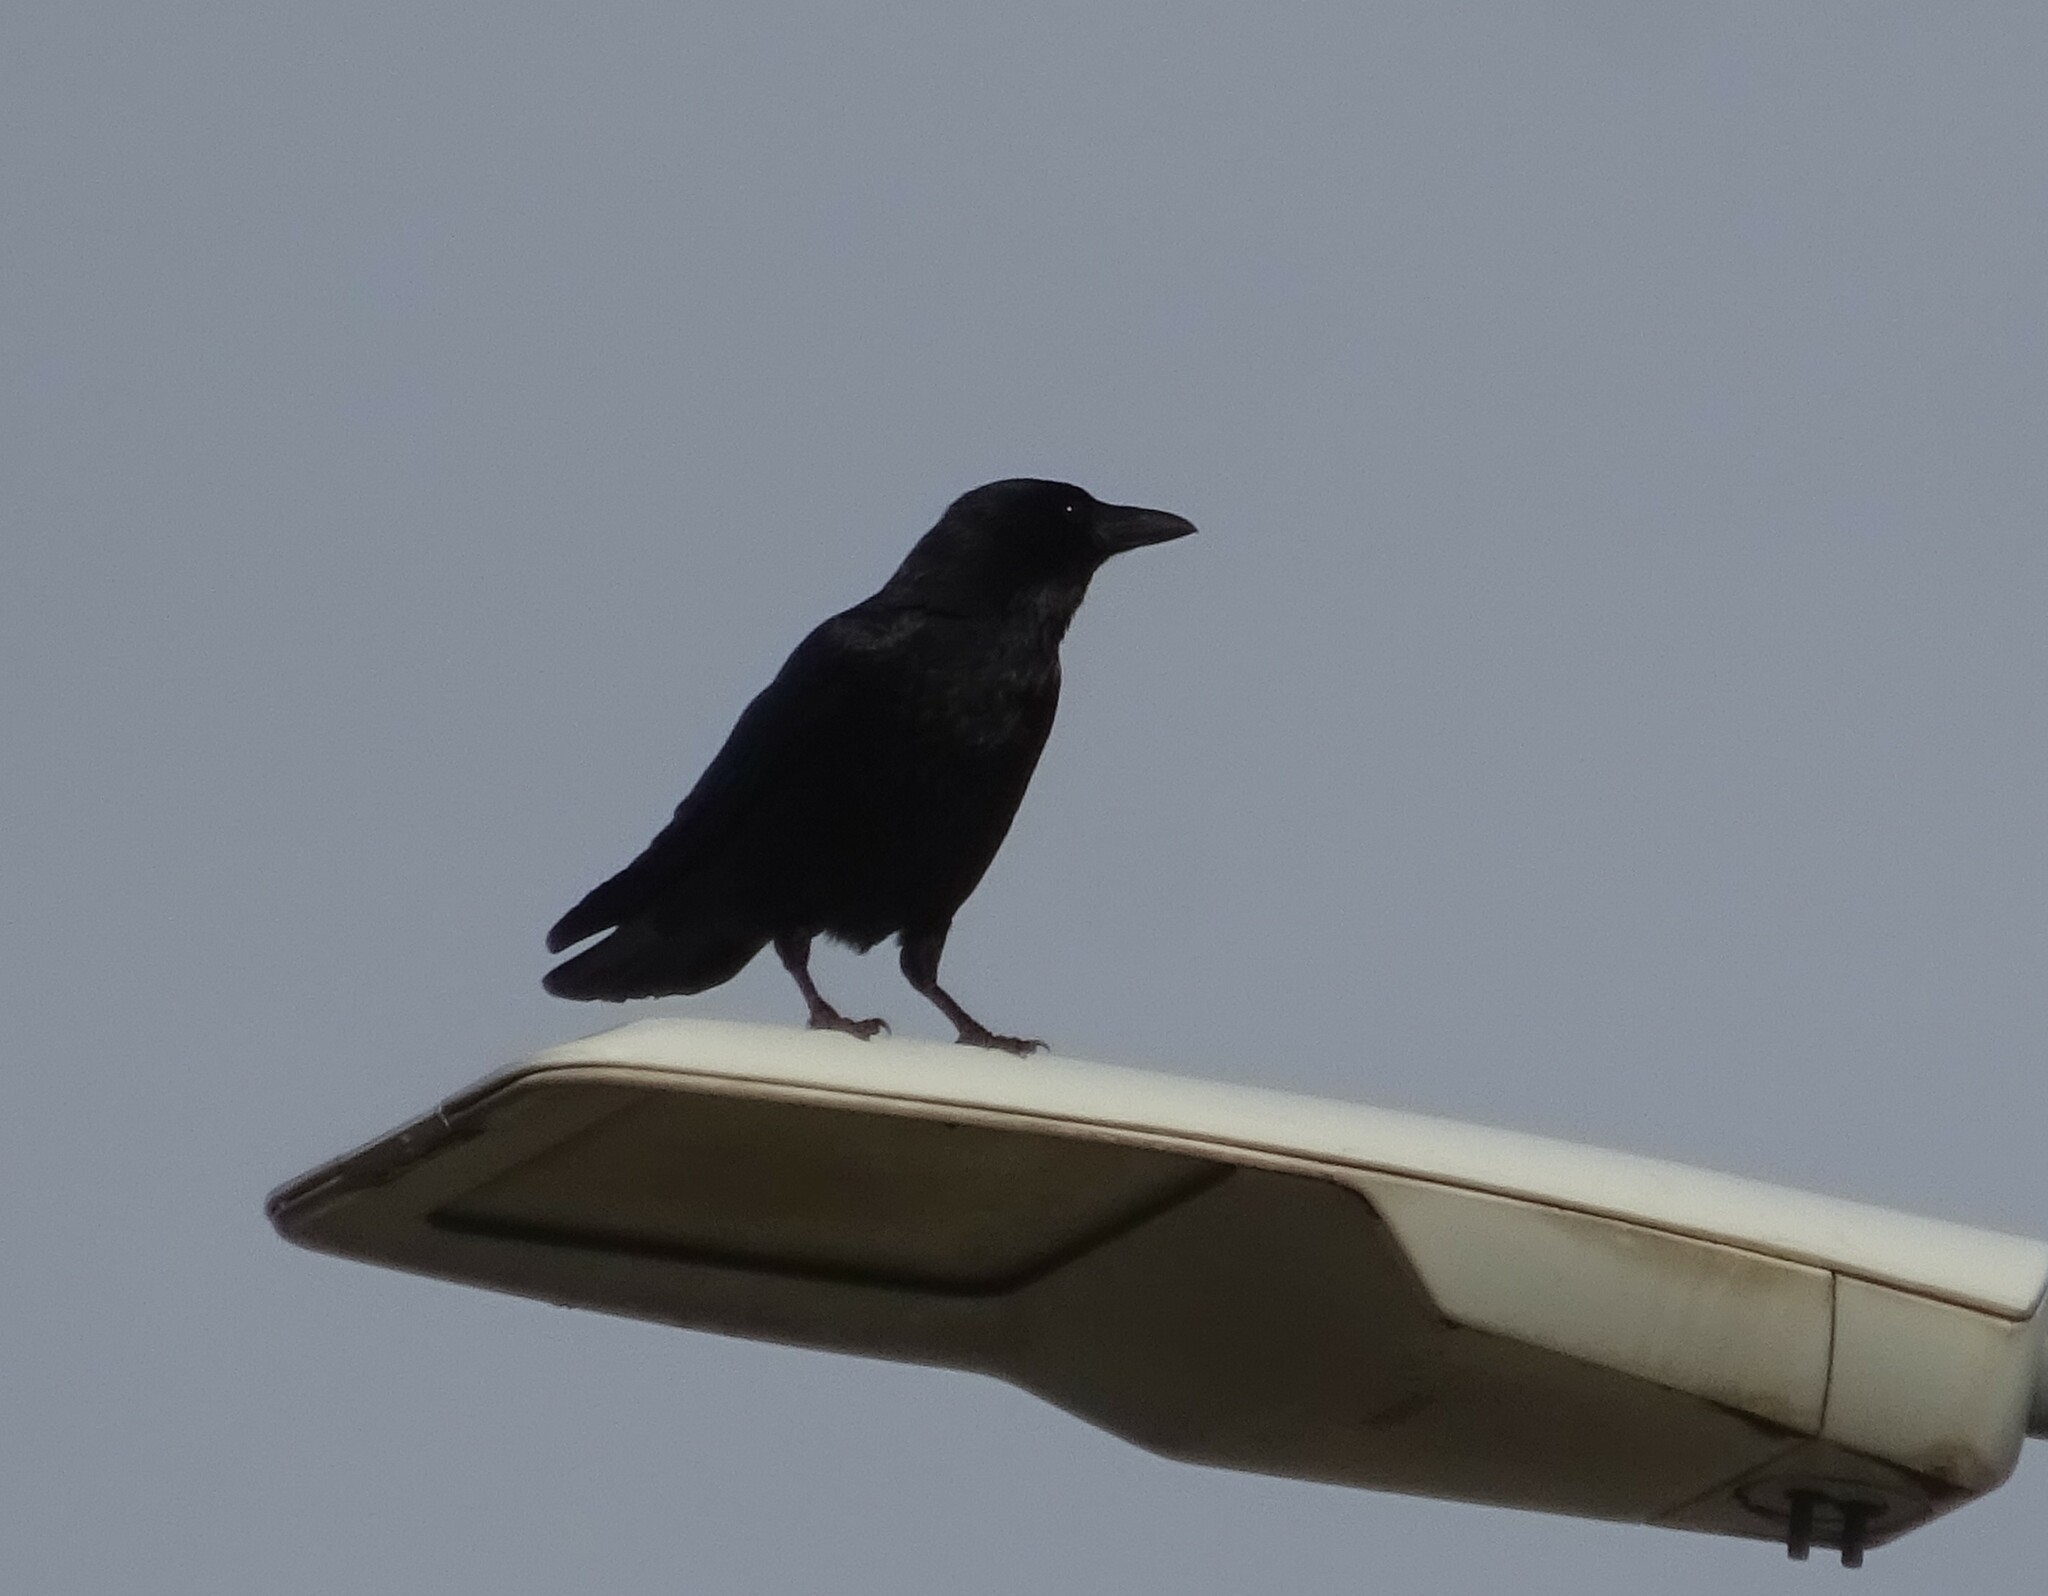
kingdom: Animalia
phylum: Chordata
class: Aves
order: Passeriformes
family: Corvidae
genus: Corvus
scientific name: Corvus corone
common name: Carrion crow
